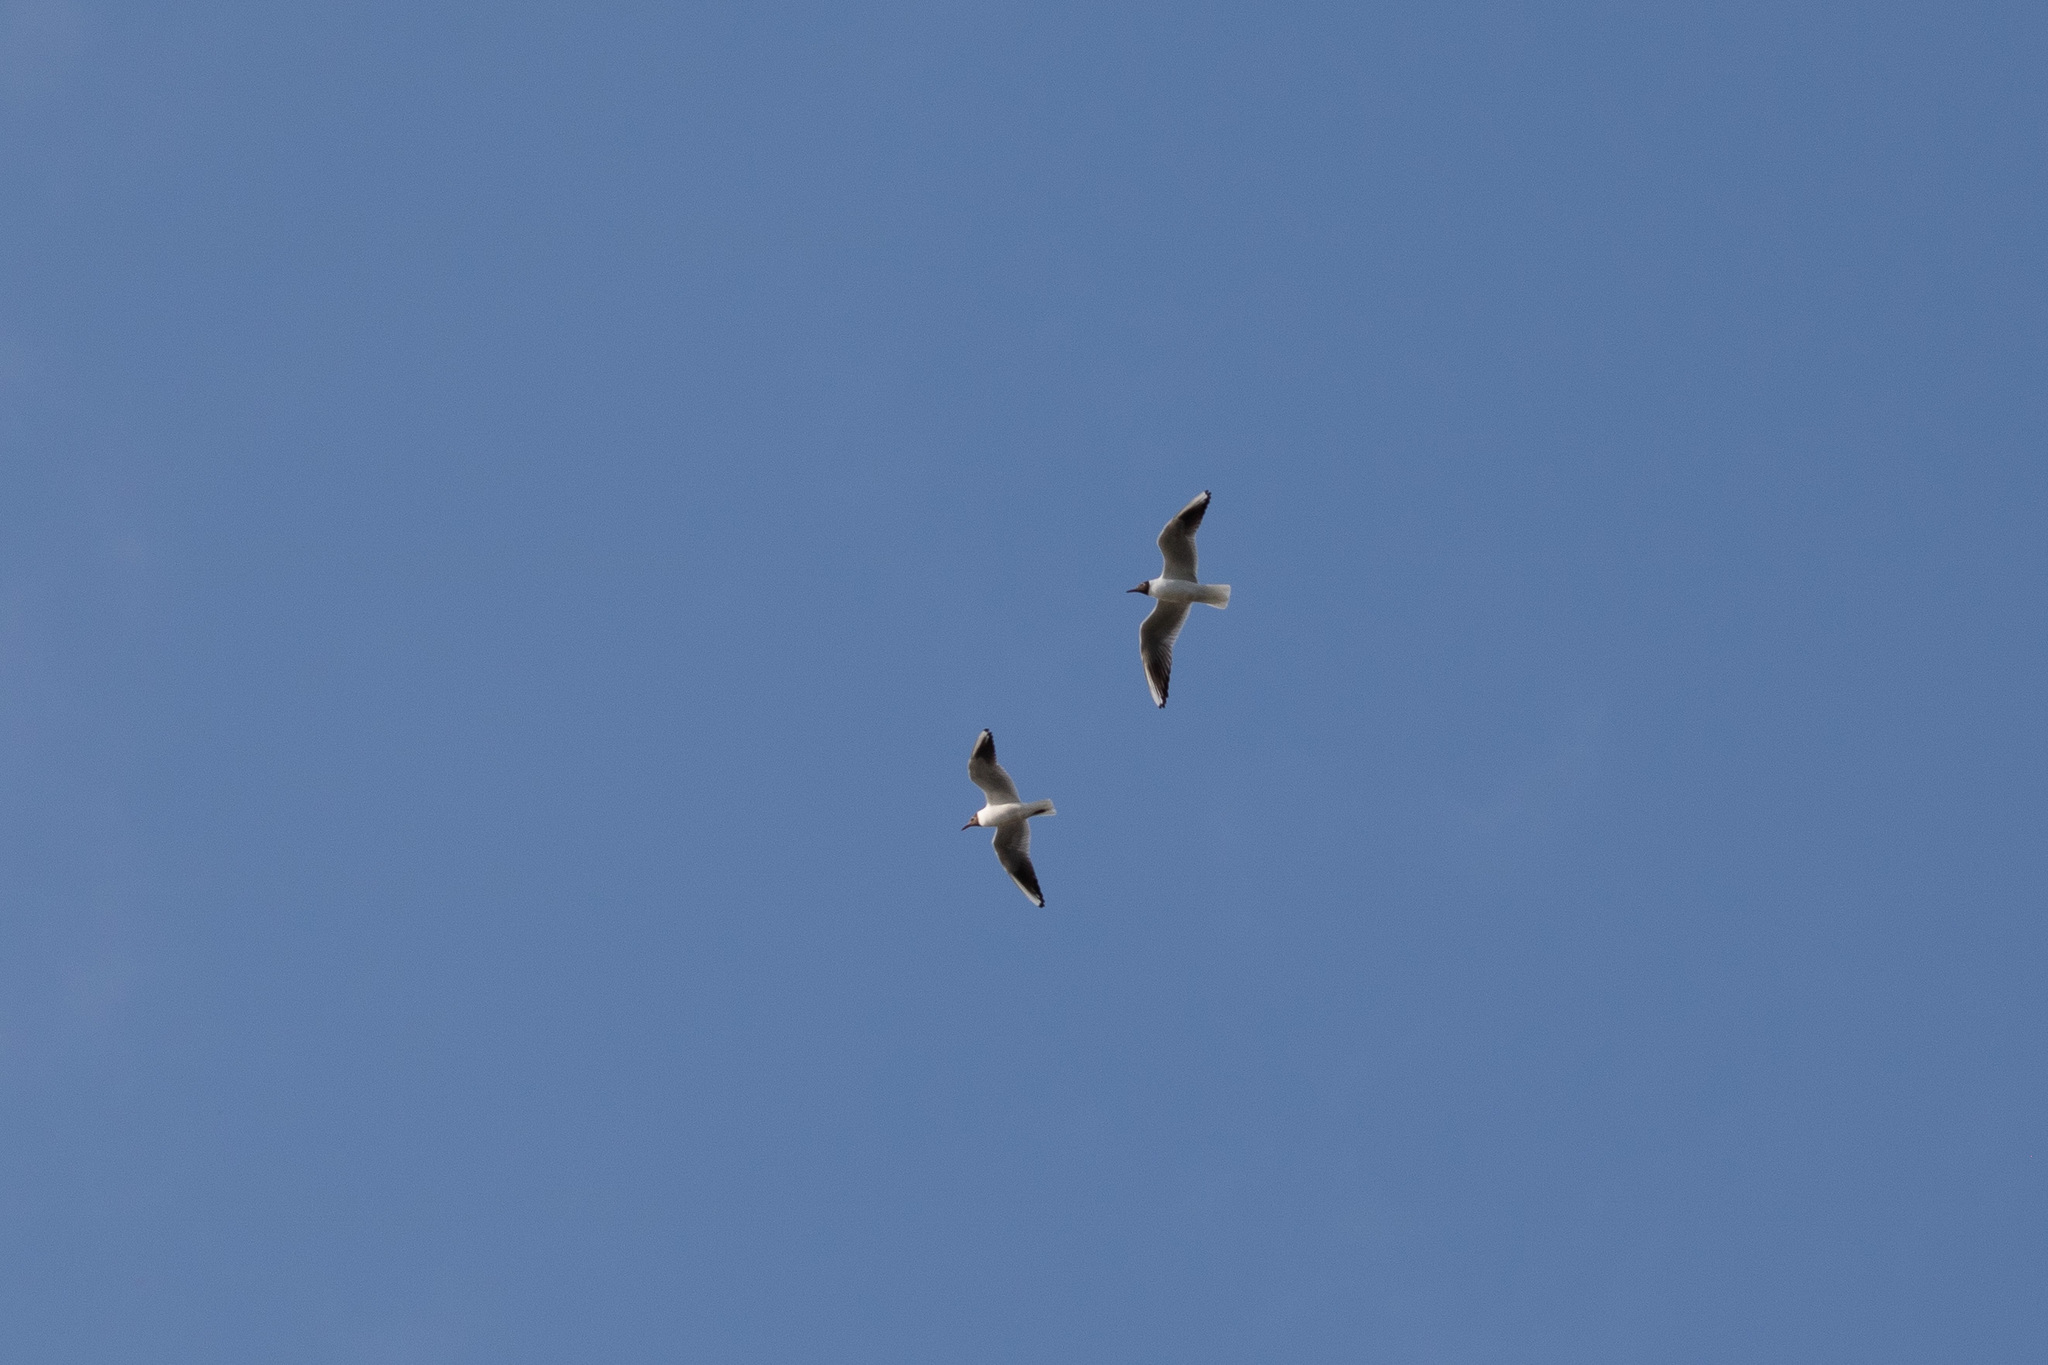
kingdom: Animalia
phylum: Chordata
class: Aves
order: Charadriiformes
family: Laridae
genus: Chroicocephalus
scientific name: Chroicocephalus ridibundus
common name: Black-headed gull
